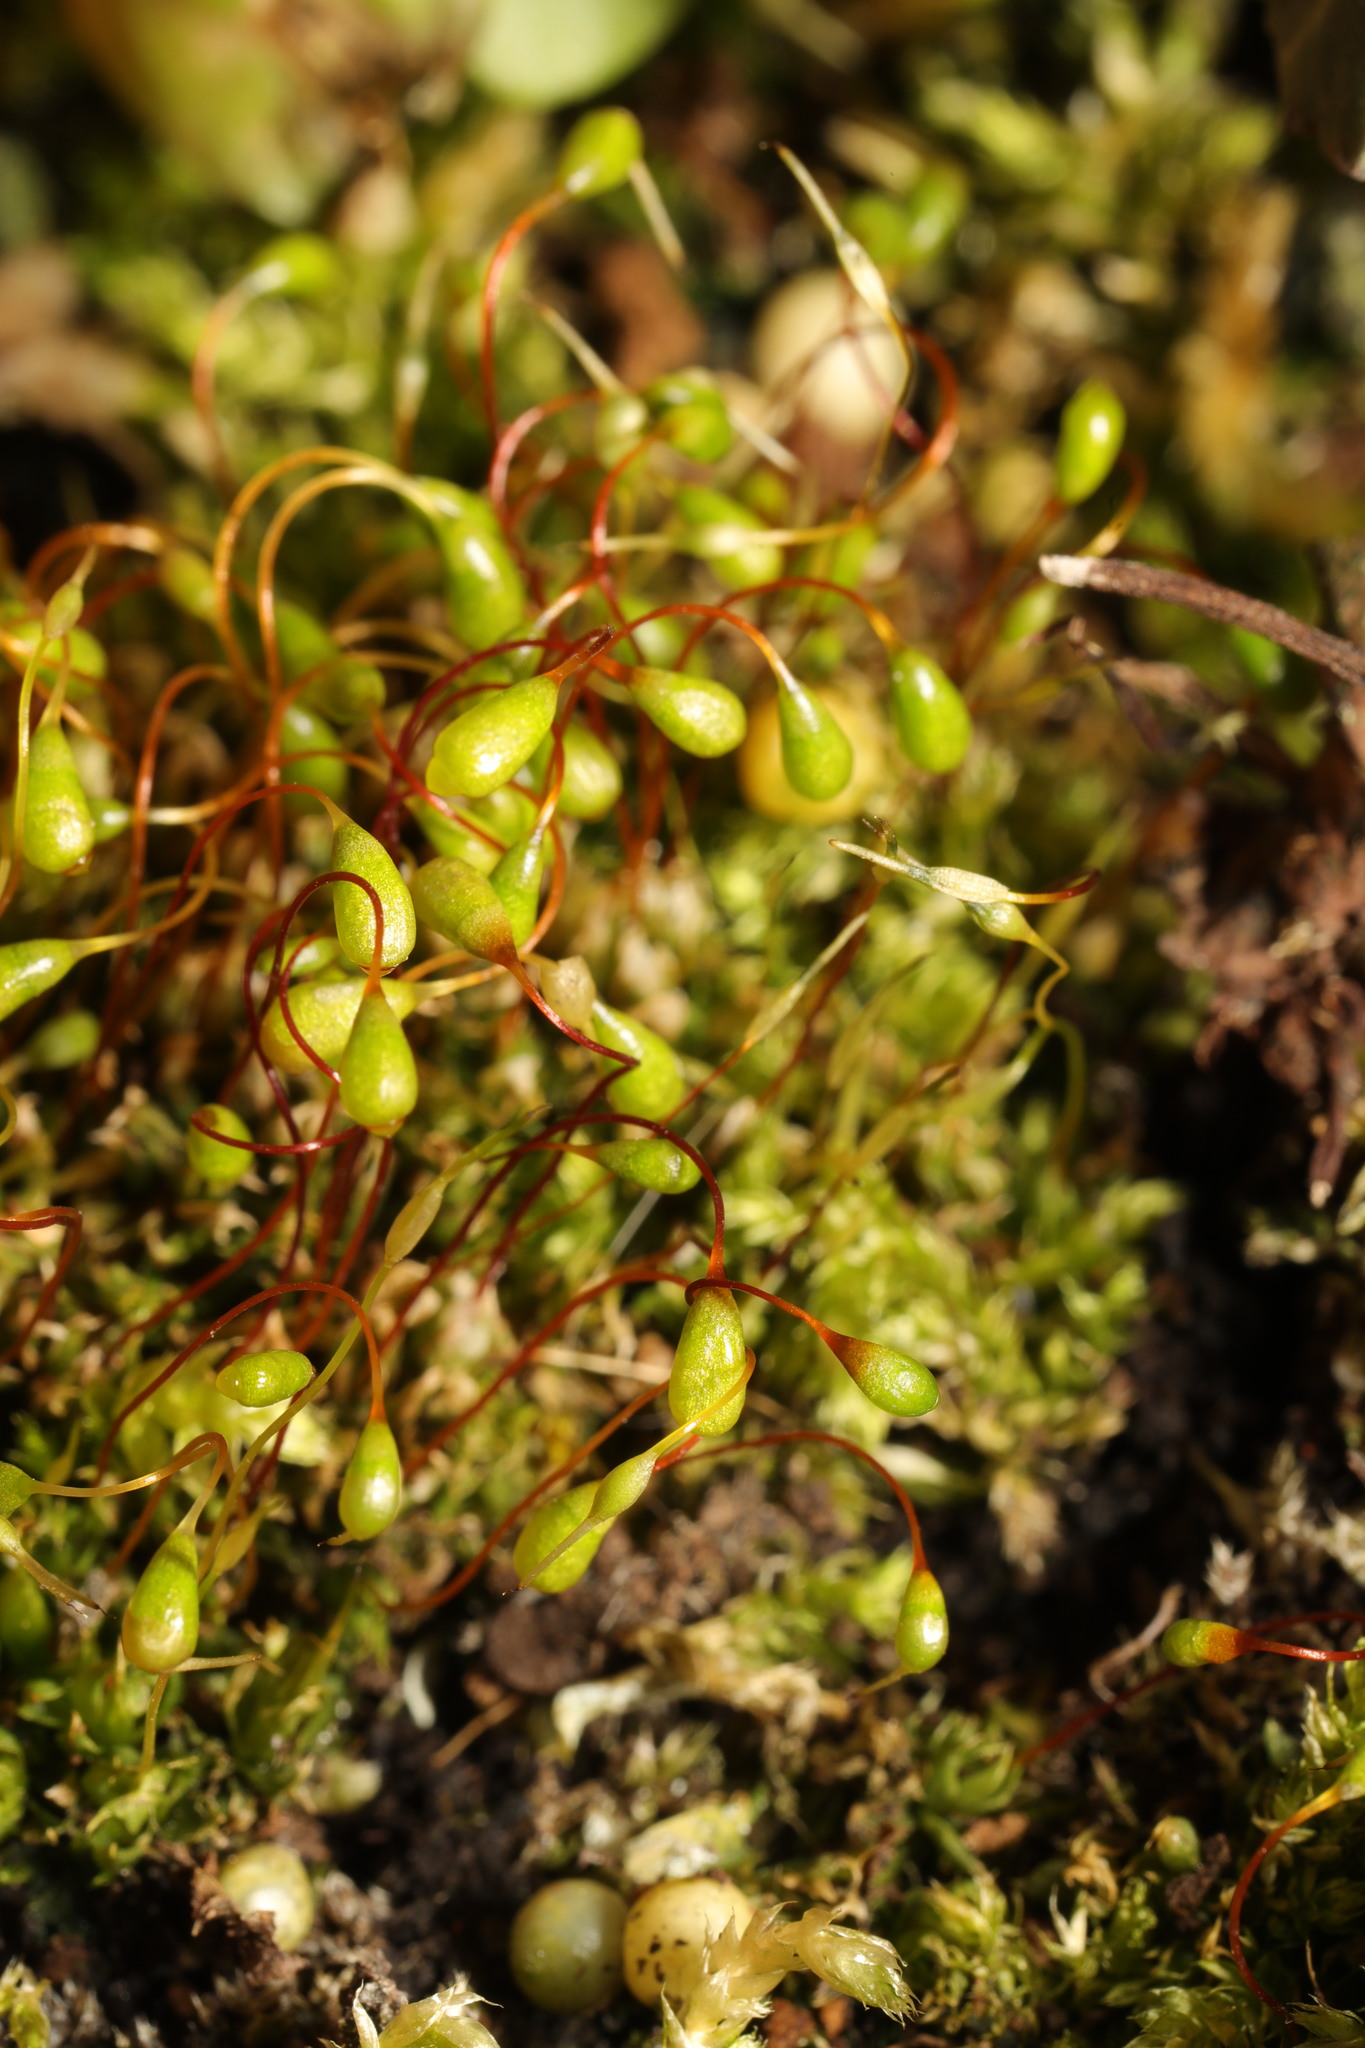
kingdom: Plantae
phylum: Bryophyta
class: Bryopsida
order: Funariales
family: Funariaceae
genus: Funaria
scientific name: Funaria hygrometrica
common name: Common cord moss
